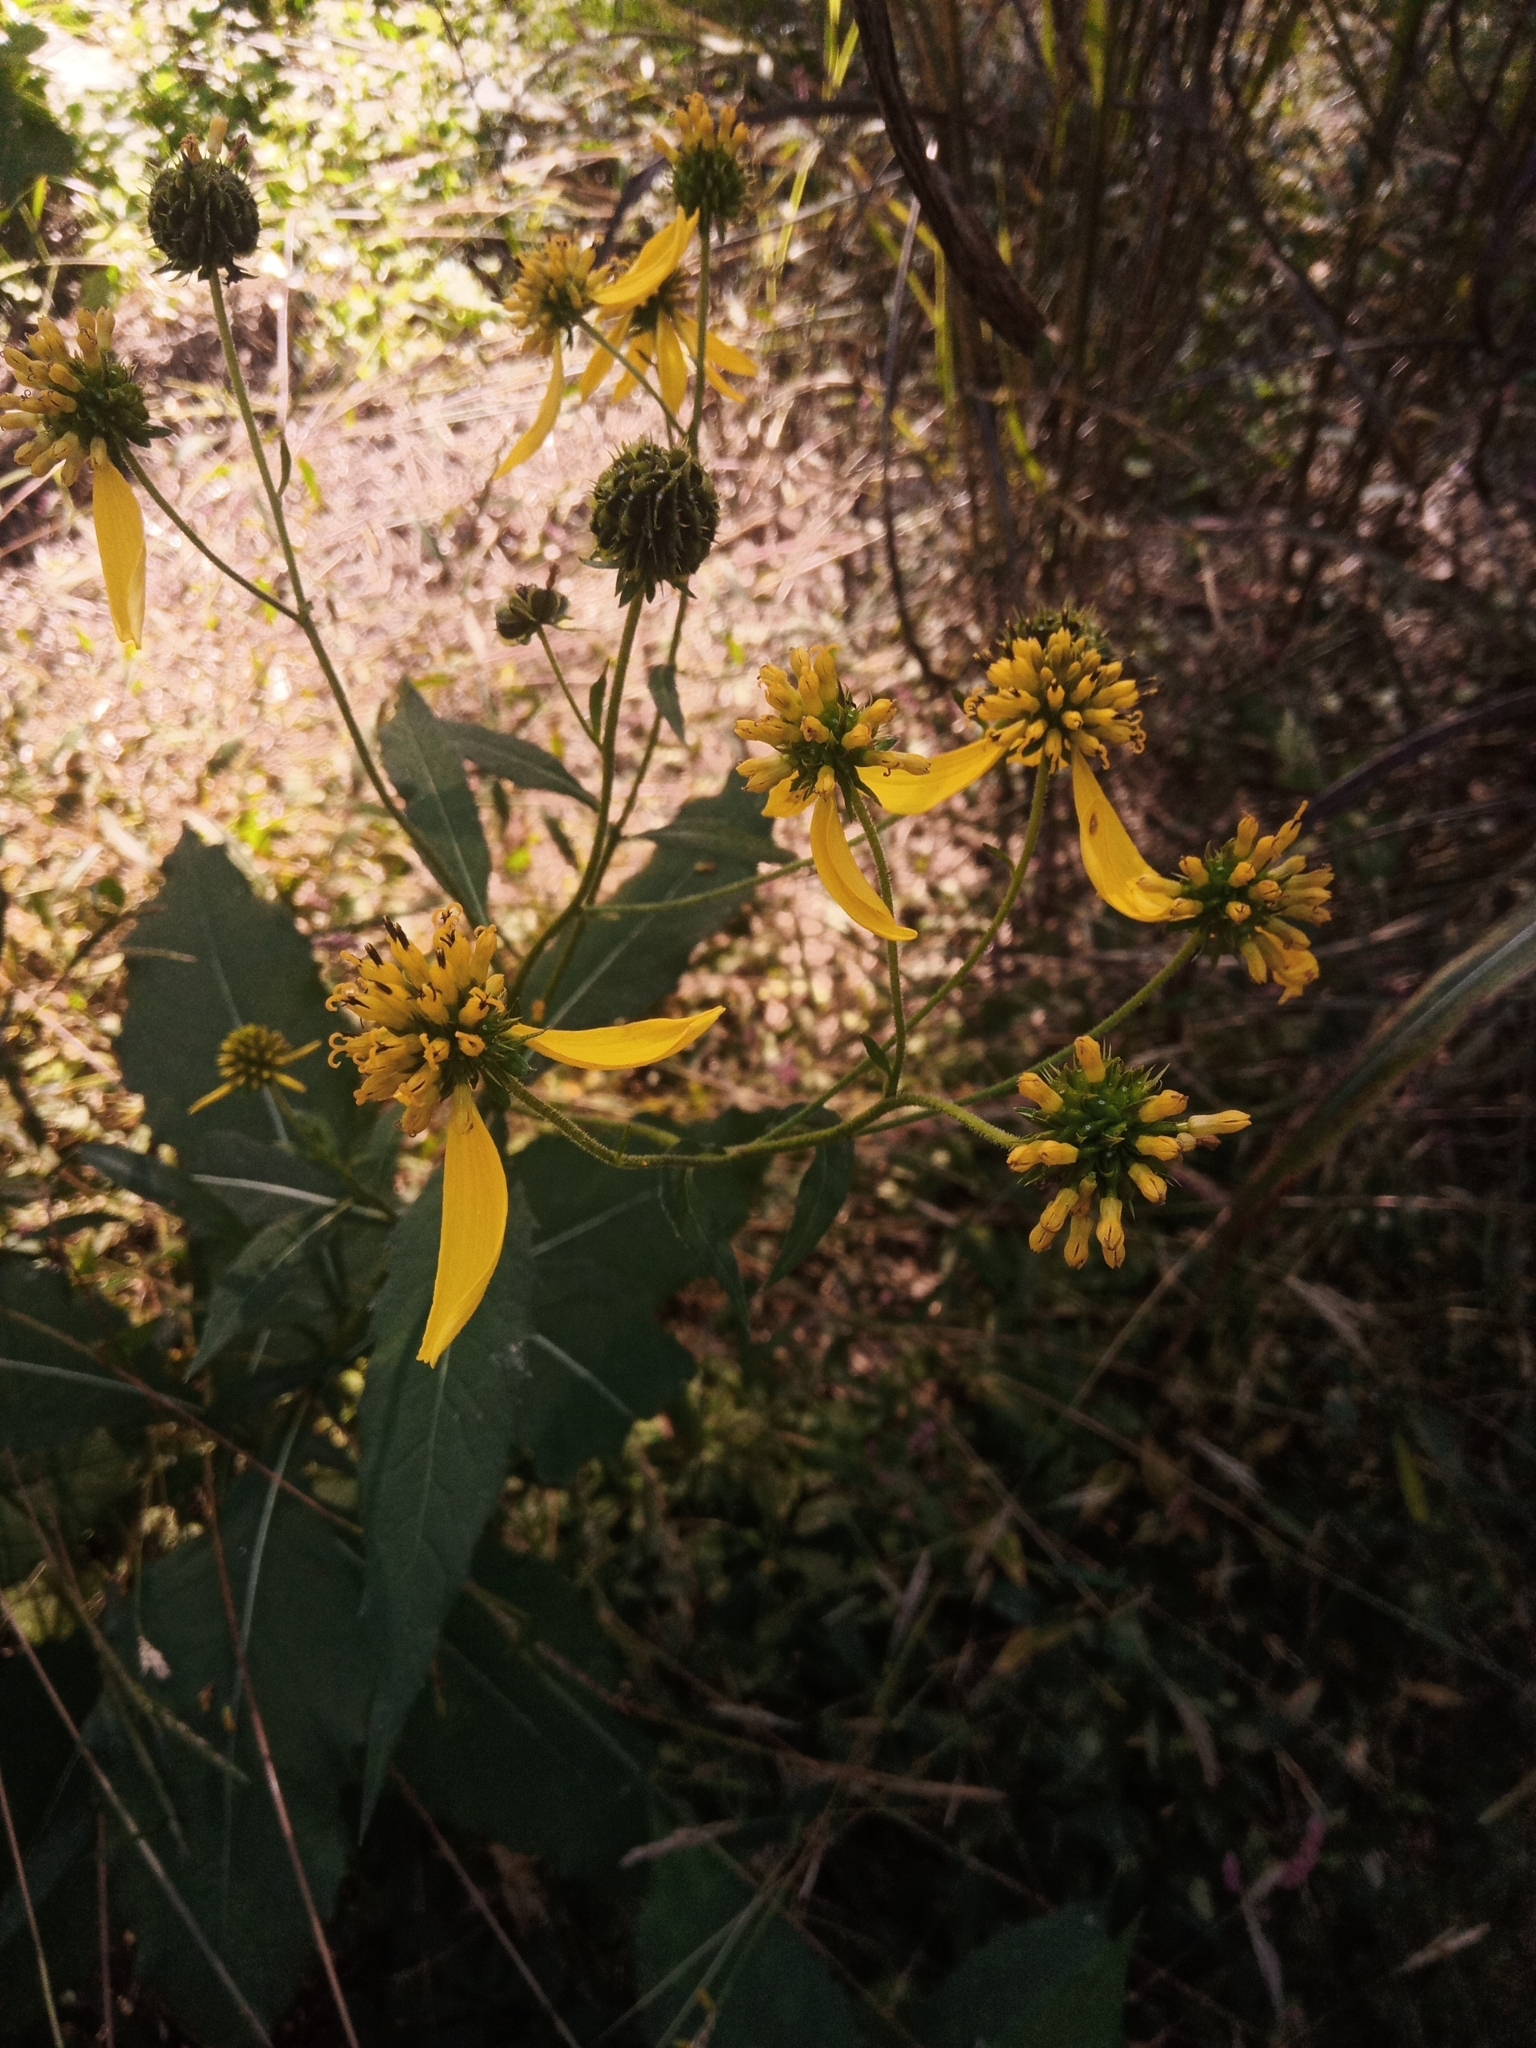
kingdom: Plantae
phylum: Tracheophyta
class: Magnoliopsida
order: Asterales
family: Asteraceae
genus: Verbesina
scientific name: Verbesina alternifolia
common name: Wingstem
